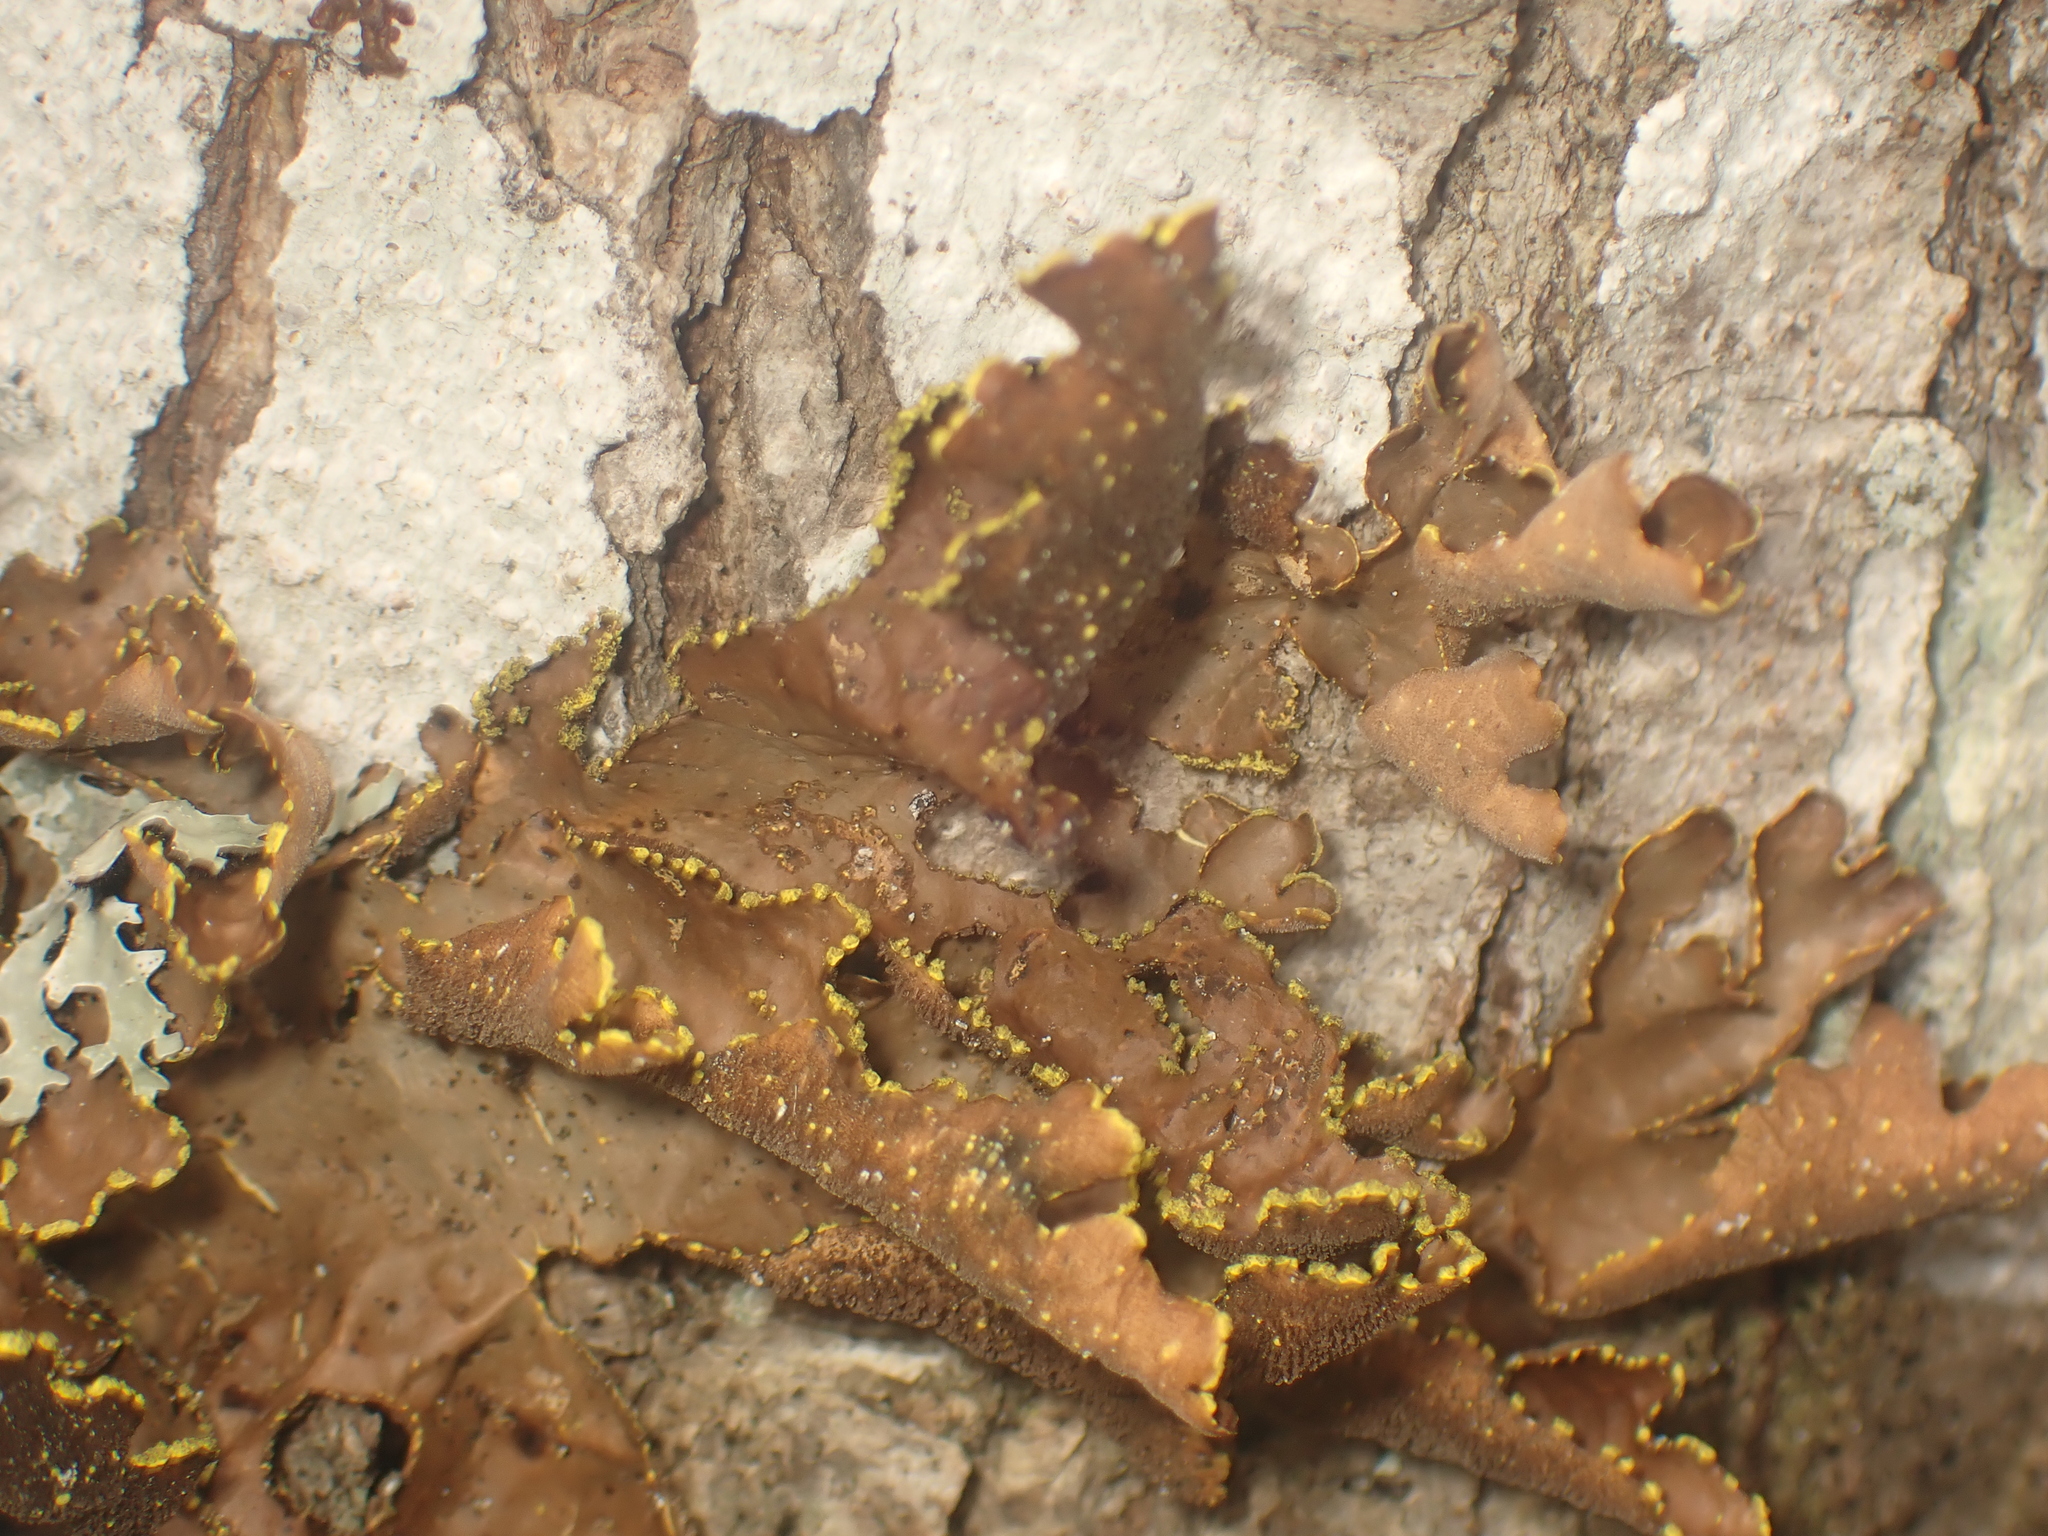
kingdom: Fungi
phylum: Ascomycota
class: Lecanoromycetes
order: Peltigerales
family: Lobariaceae
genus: Pseudocyphellaria
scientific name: Pseudocyphellaria holarctica
